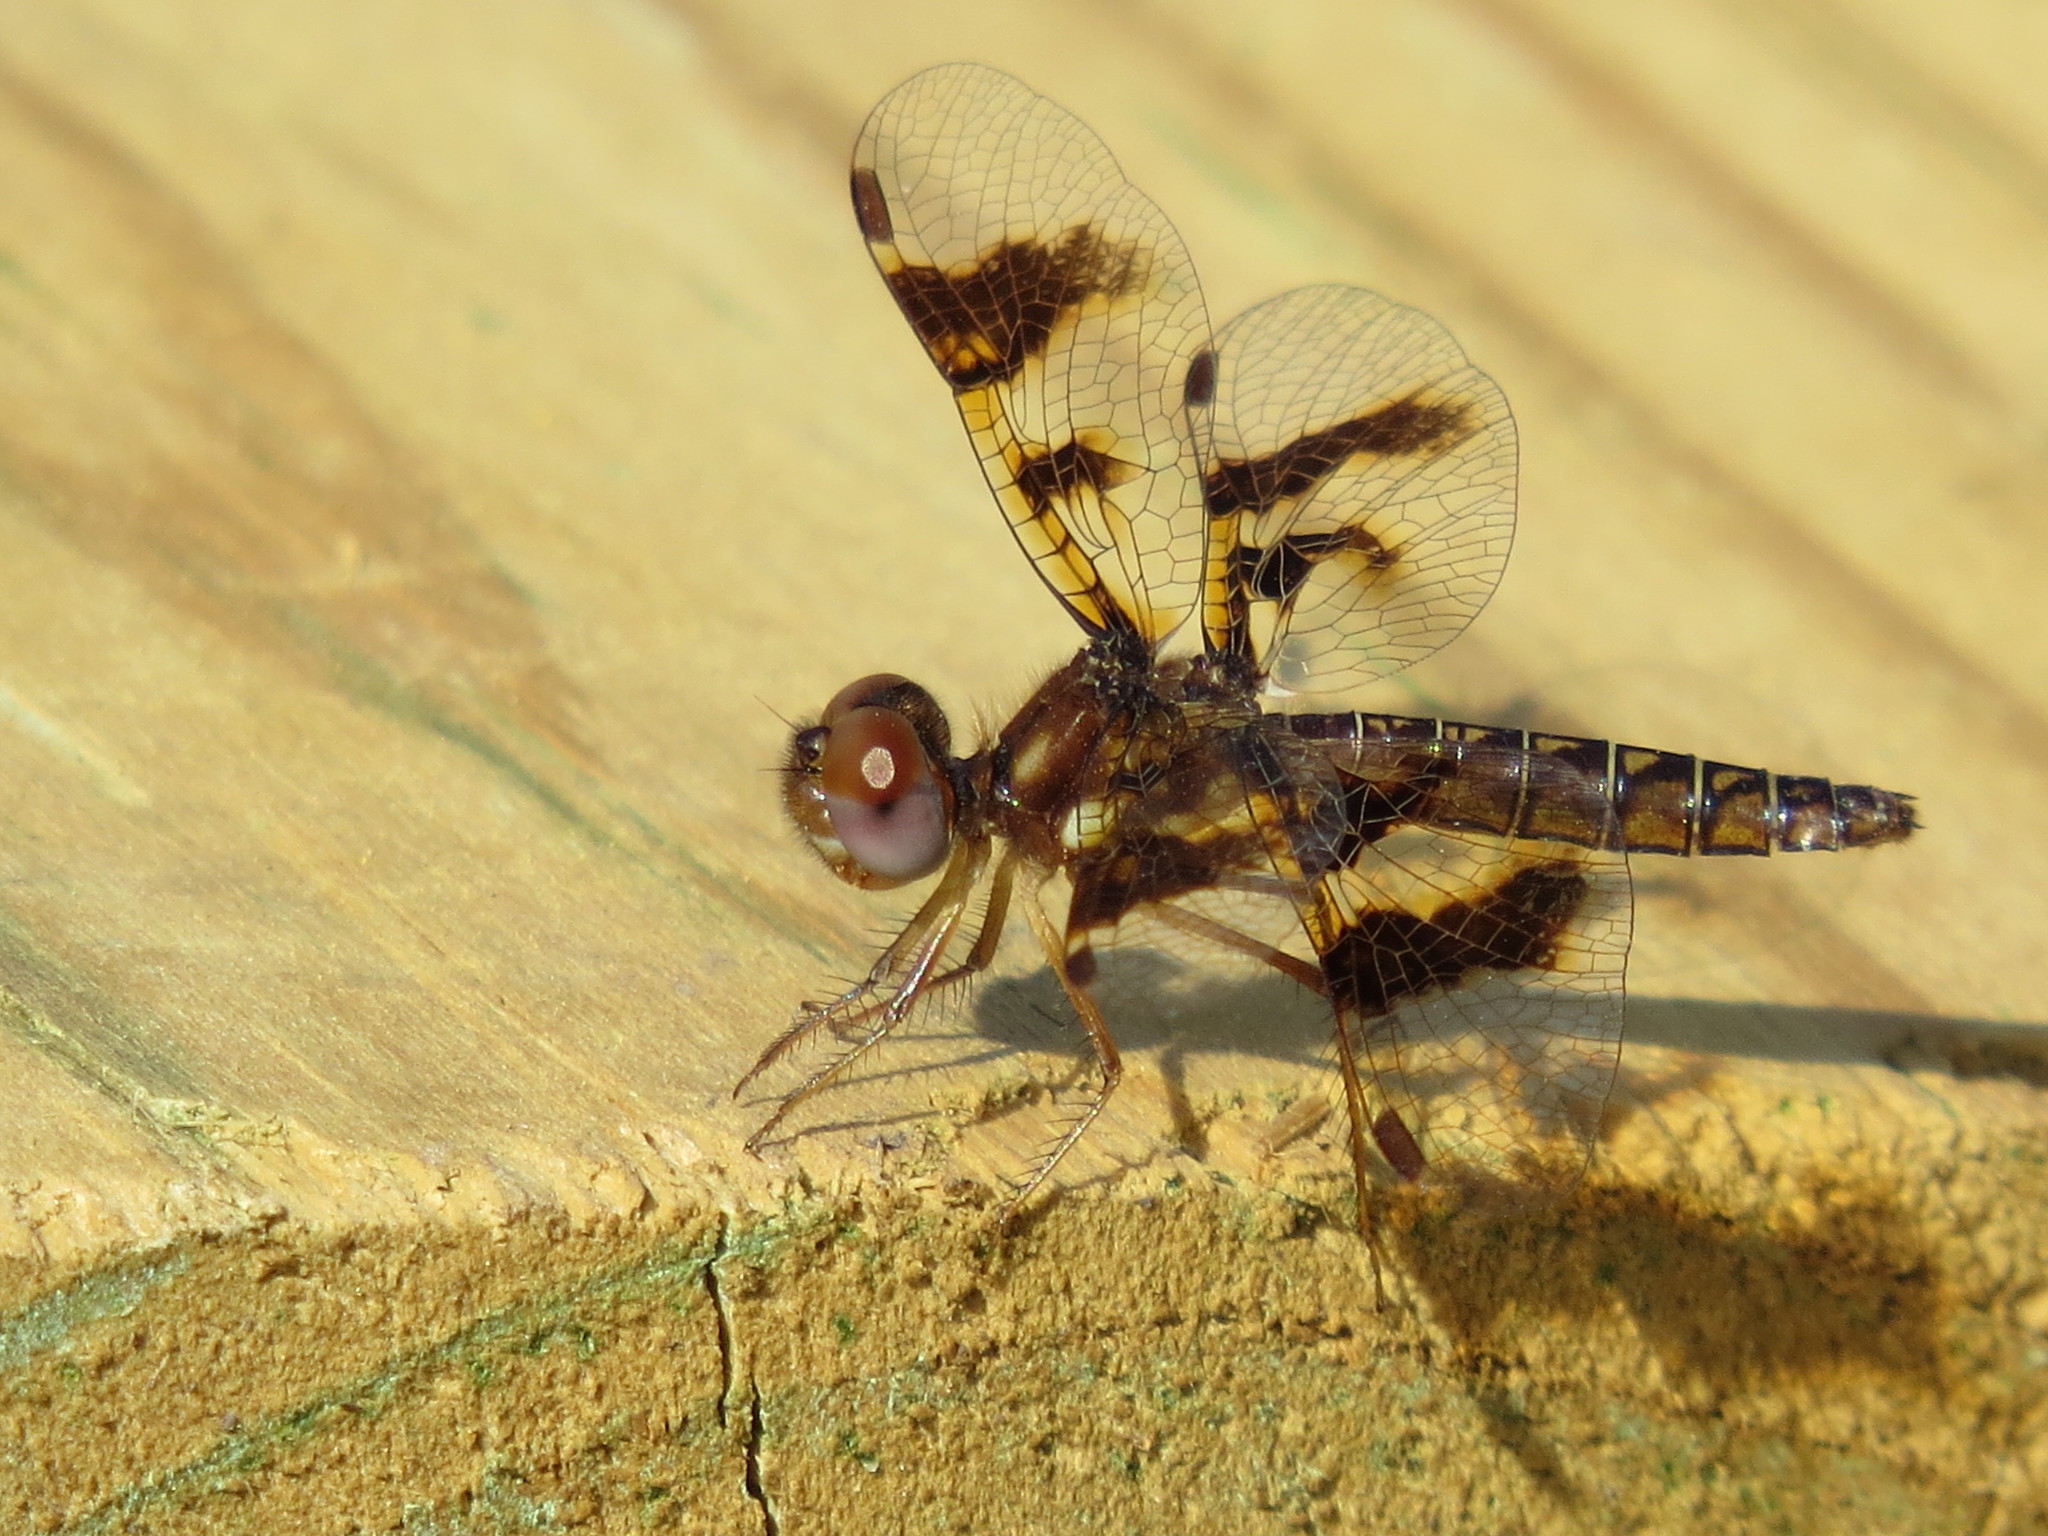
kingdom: Animalia
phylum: Arthropoda
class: Insecta
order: Odonata
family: Libellulidae
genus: Perithemis
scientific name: Perithemis tenera
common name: Eastern amberwing
